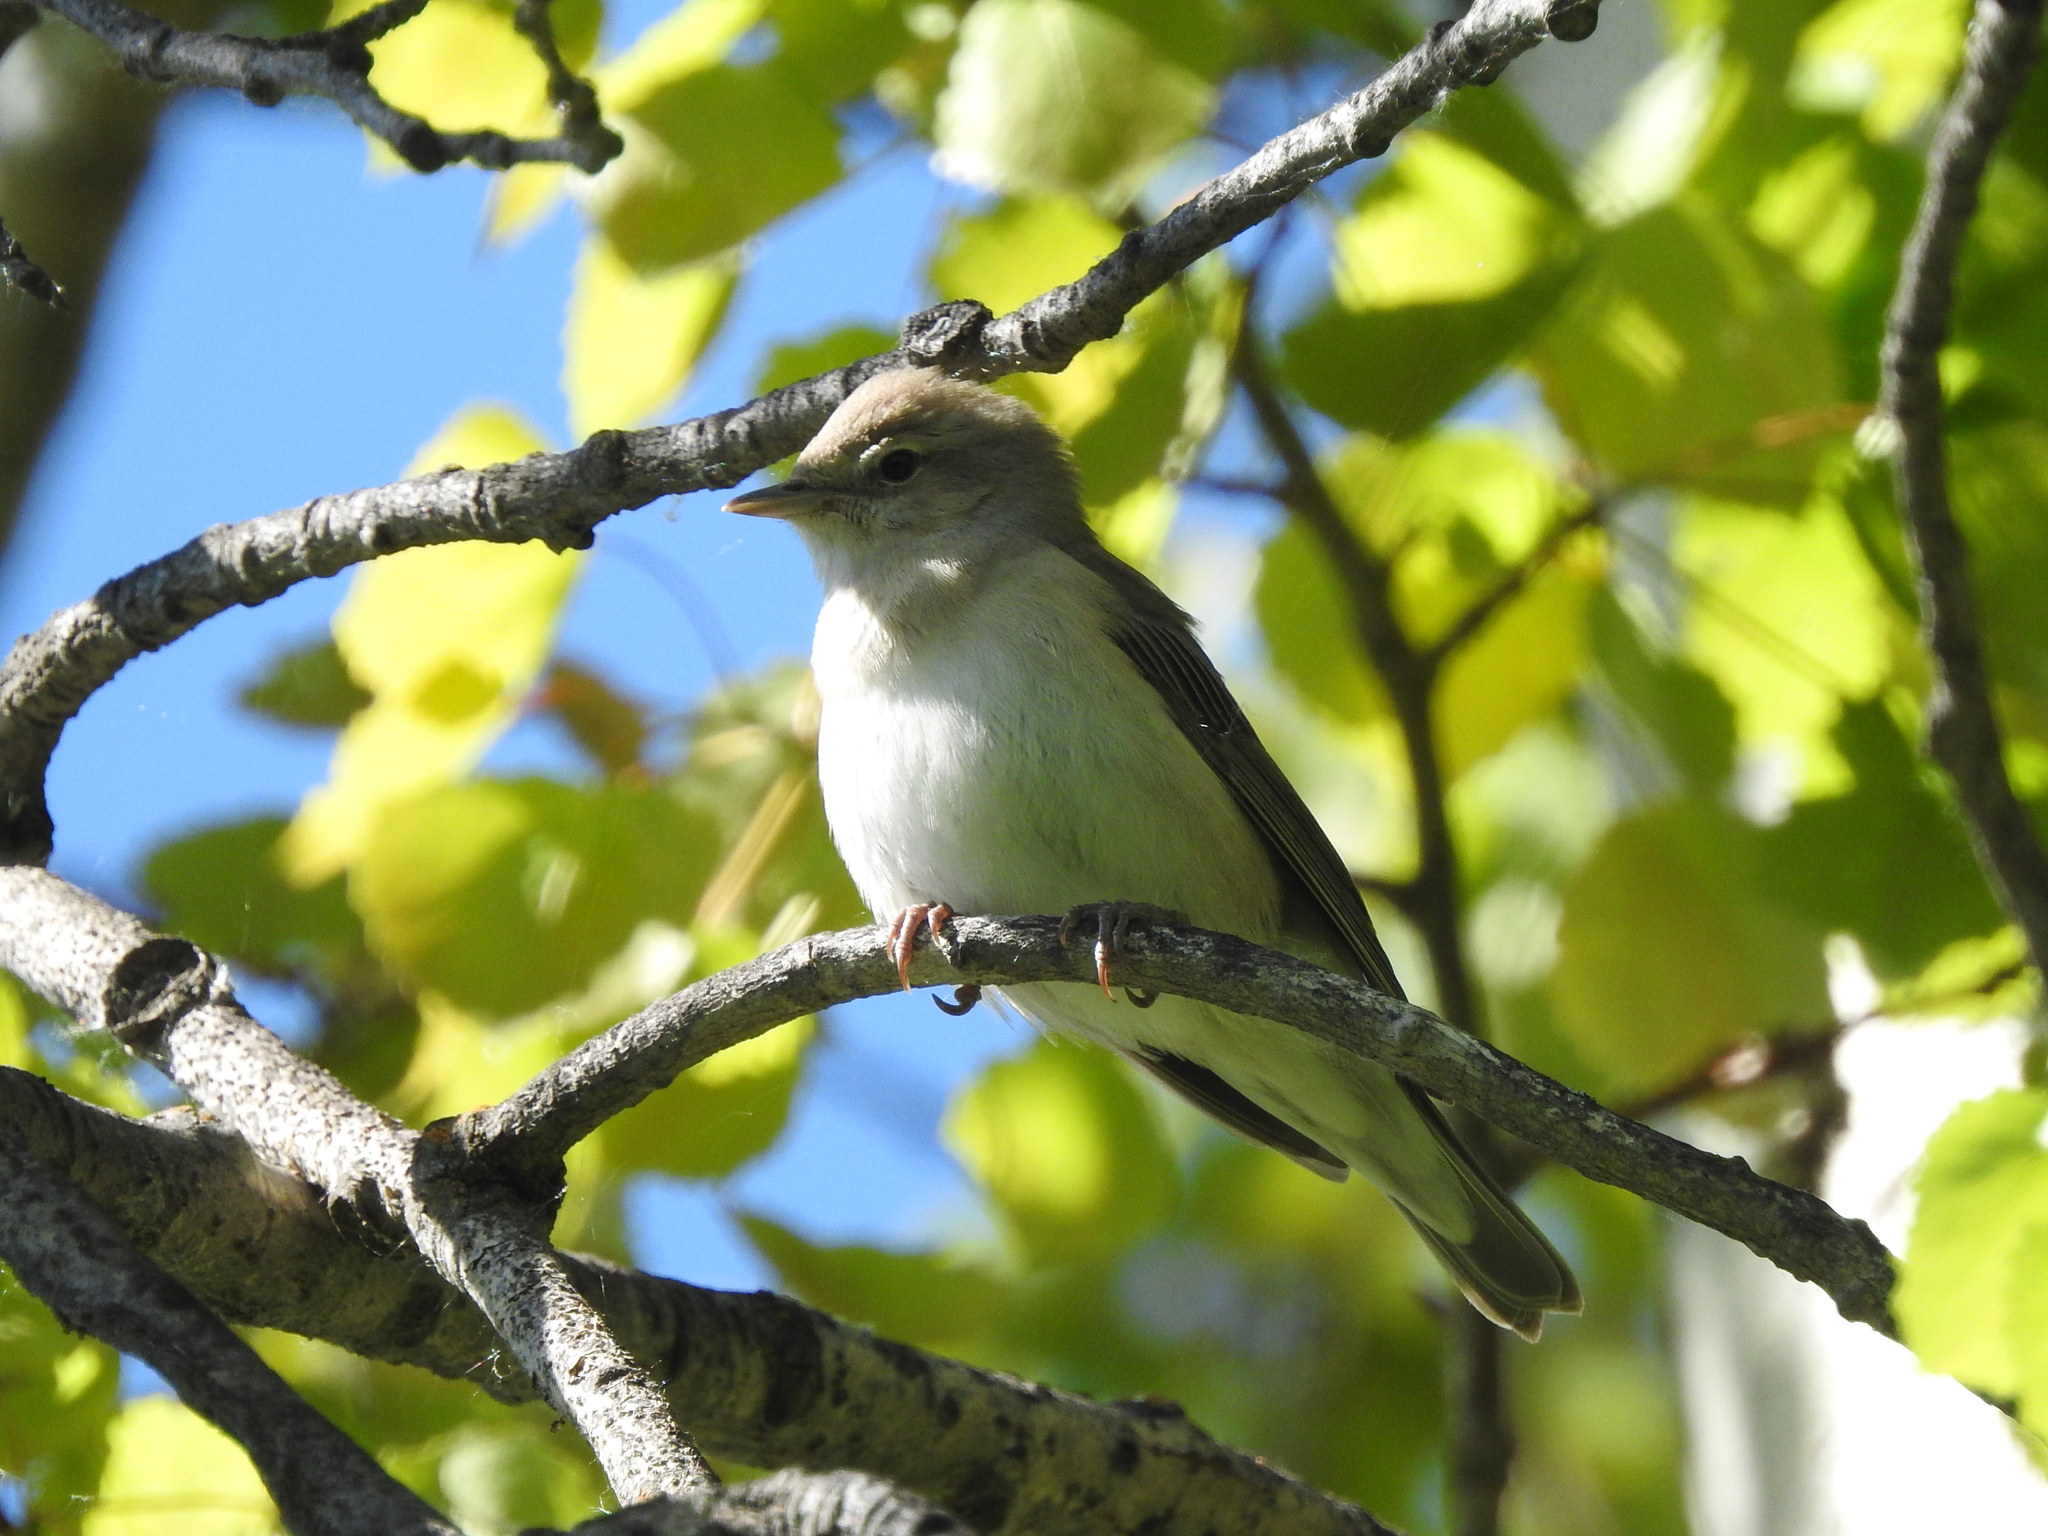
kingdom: Animalia
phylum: Chordata
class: Aves
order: Passeriformes
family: Sylviidae
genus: Sylvia
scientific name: Sylvia borin
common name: Garden warbler
